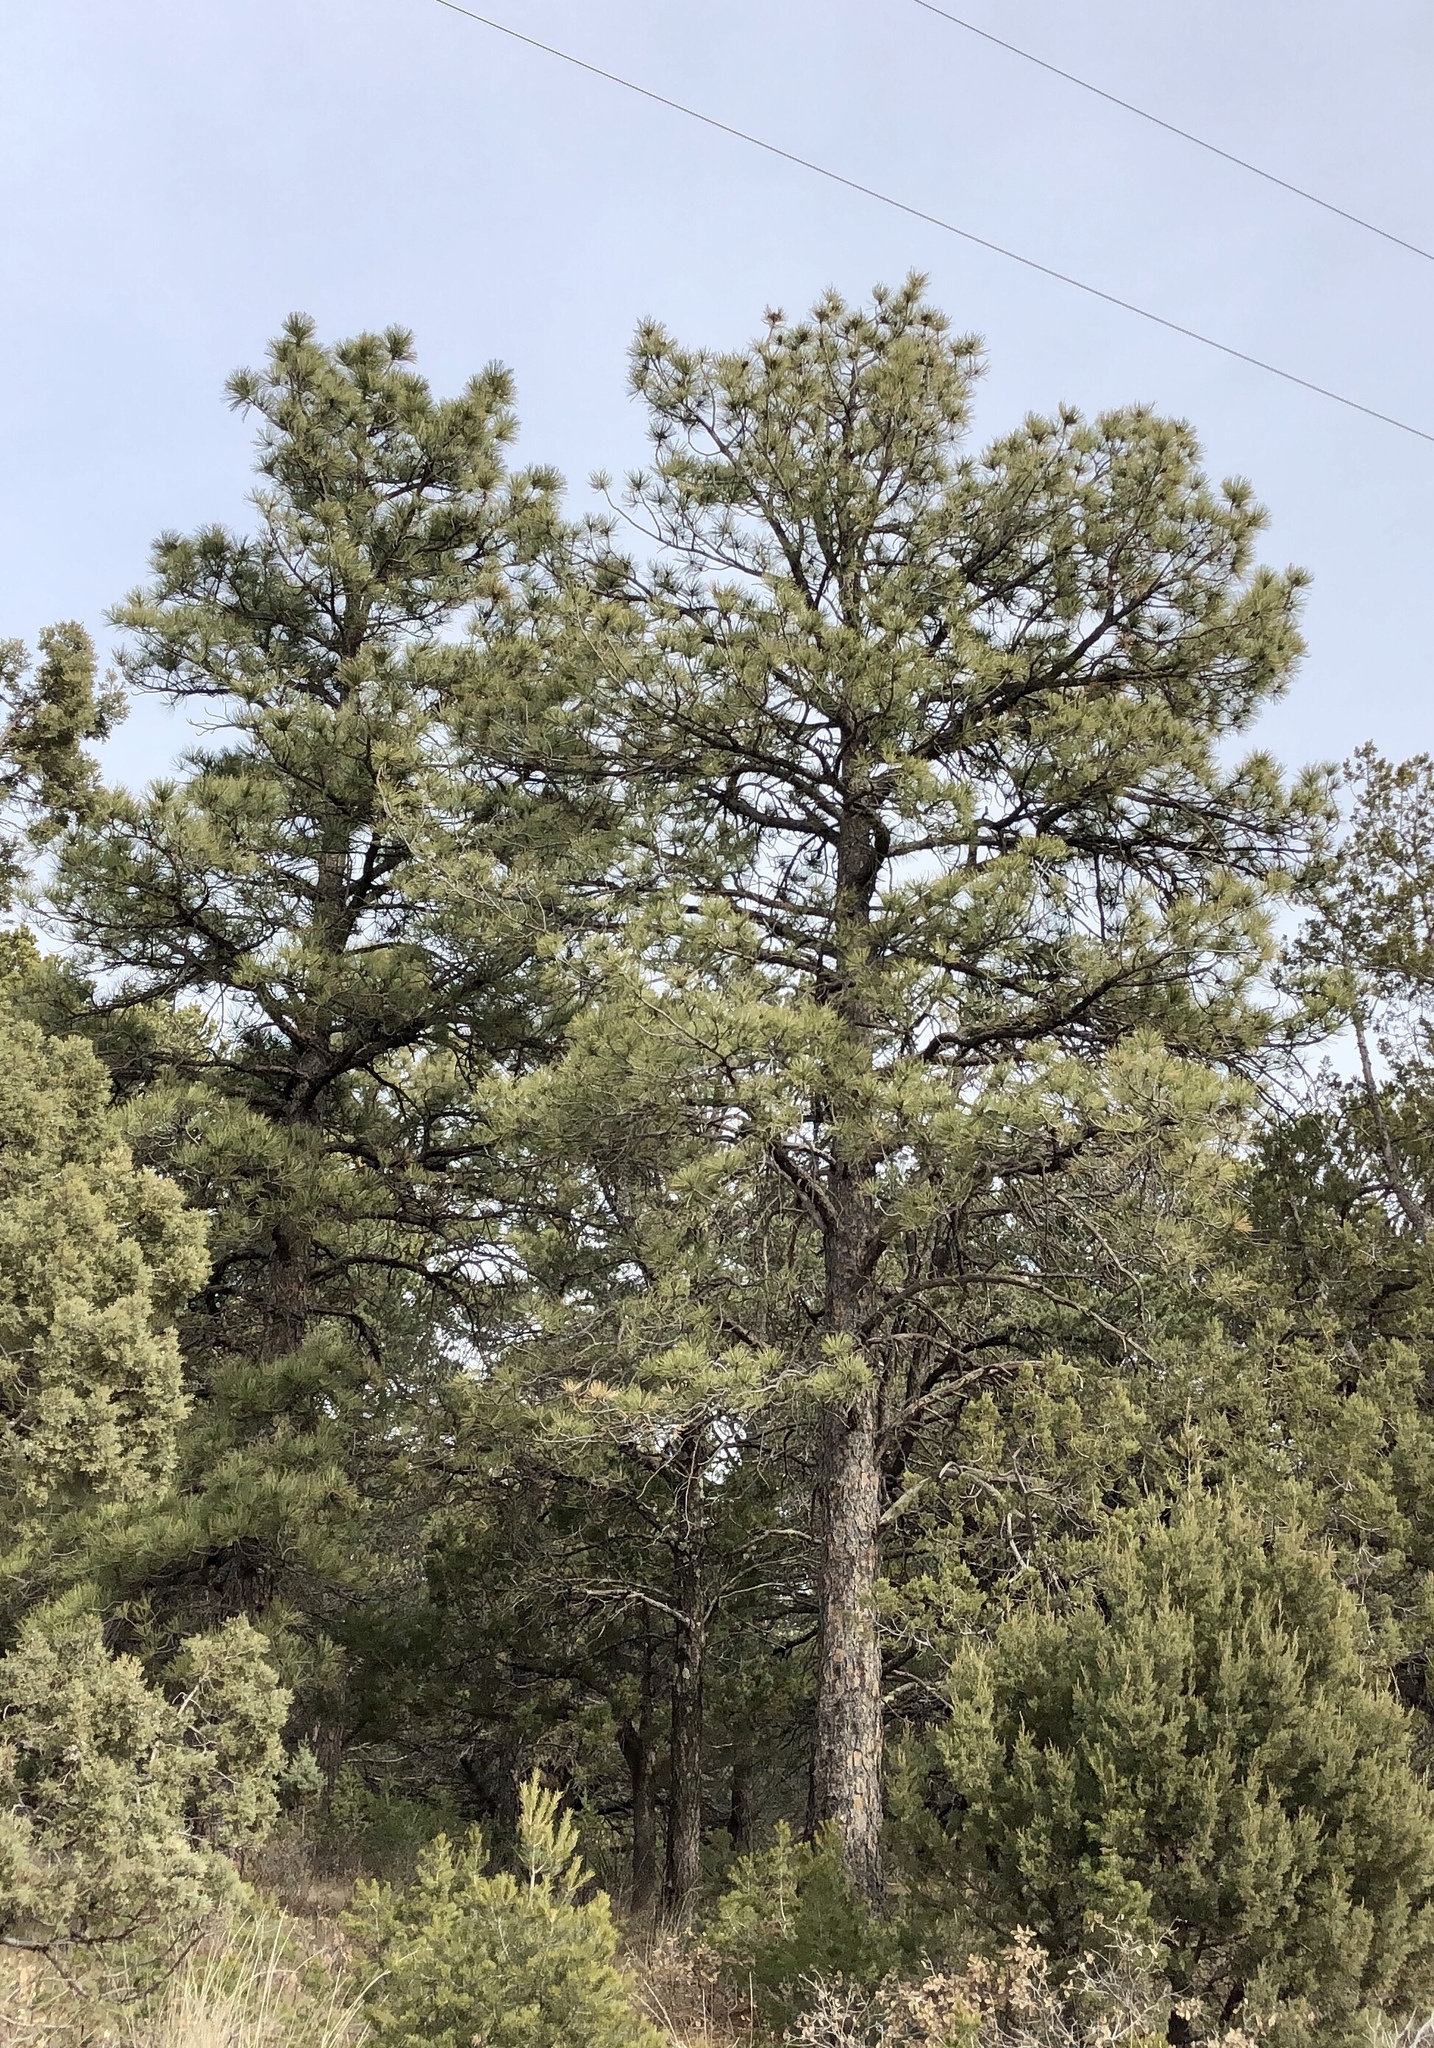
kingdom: Plantae
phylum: Tracheophyta
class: Pinopsida
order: Pinales
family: Pinaceae
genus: Pinus
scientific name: Pinus ponderosa
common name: Western yellow-pine
